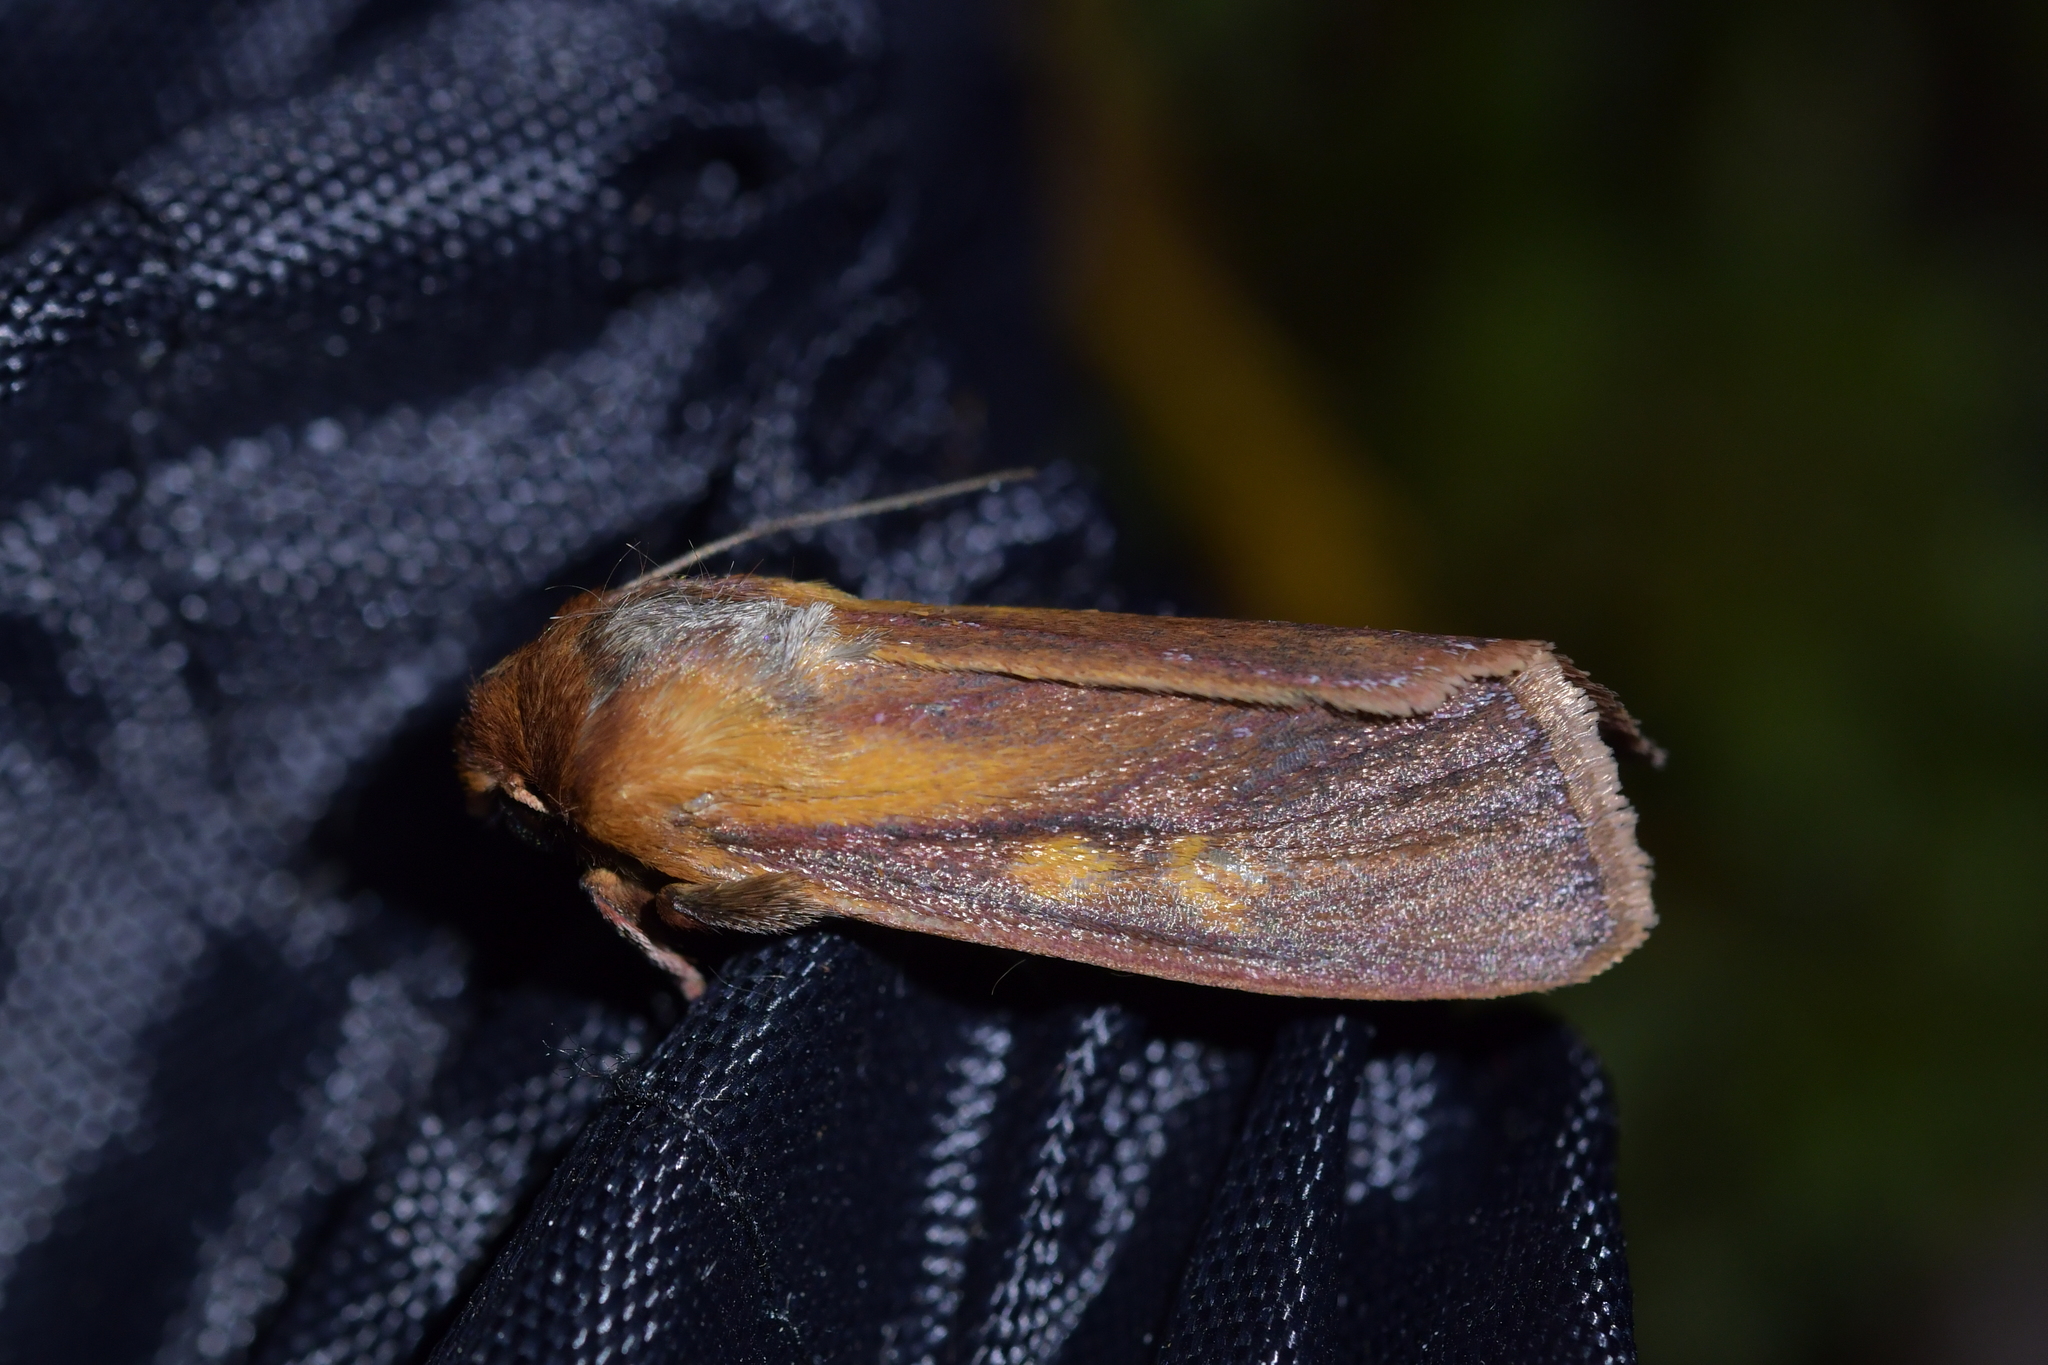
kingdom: Animalia
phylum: Arthropoda
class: Insecta
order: Lepidoptera
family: Noctuidae
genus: Ichneutica
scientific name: Ichneutica
